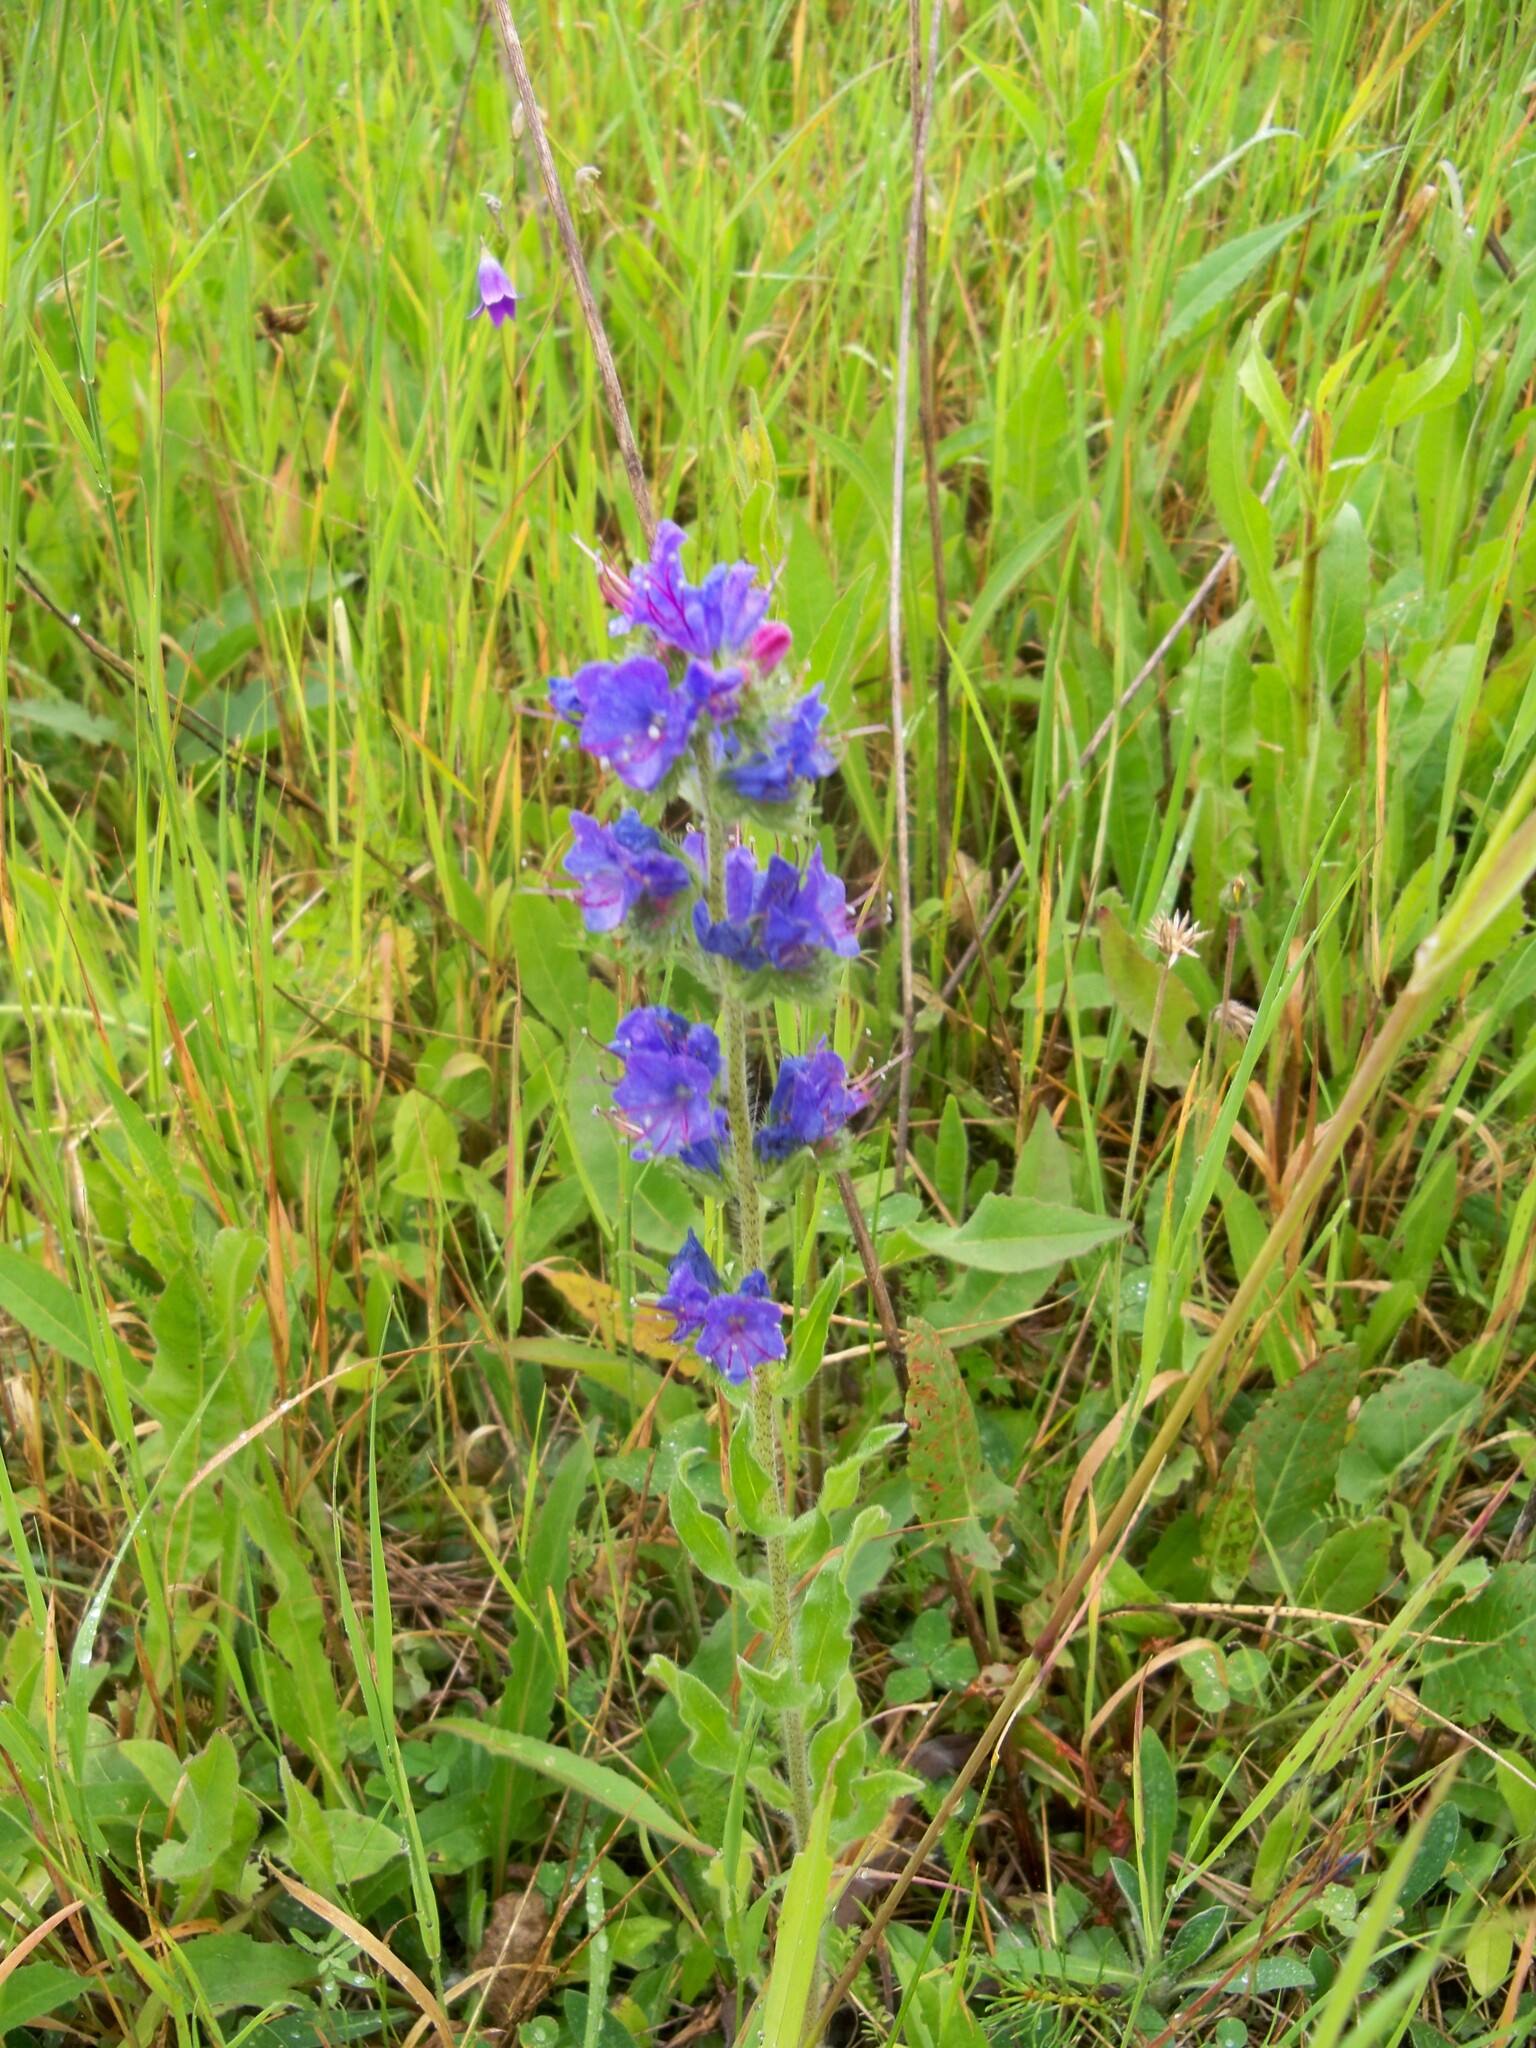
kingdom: Plantae
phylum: Tracheophyta
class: Magnoliopsida
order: Boraginales
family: Boraginaceae
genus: Echium
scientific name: Echium vulgare
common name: Common viper's bugloss
